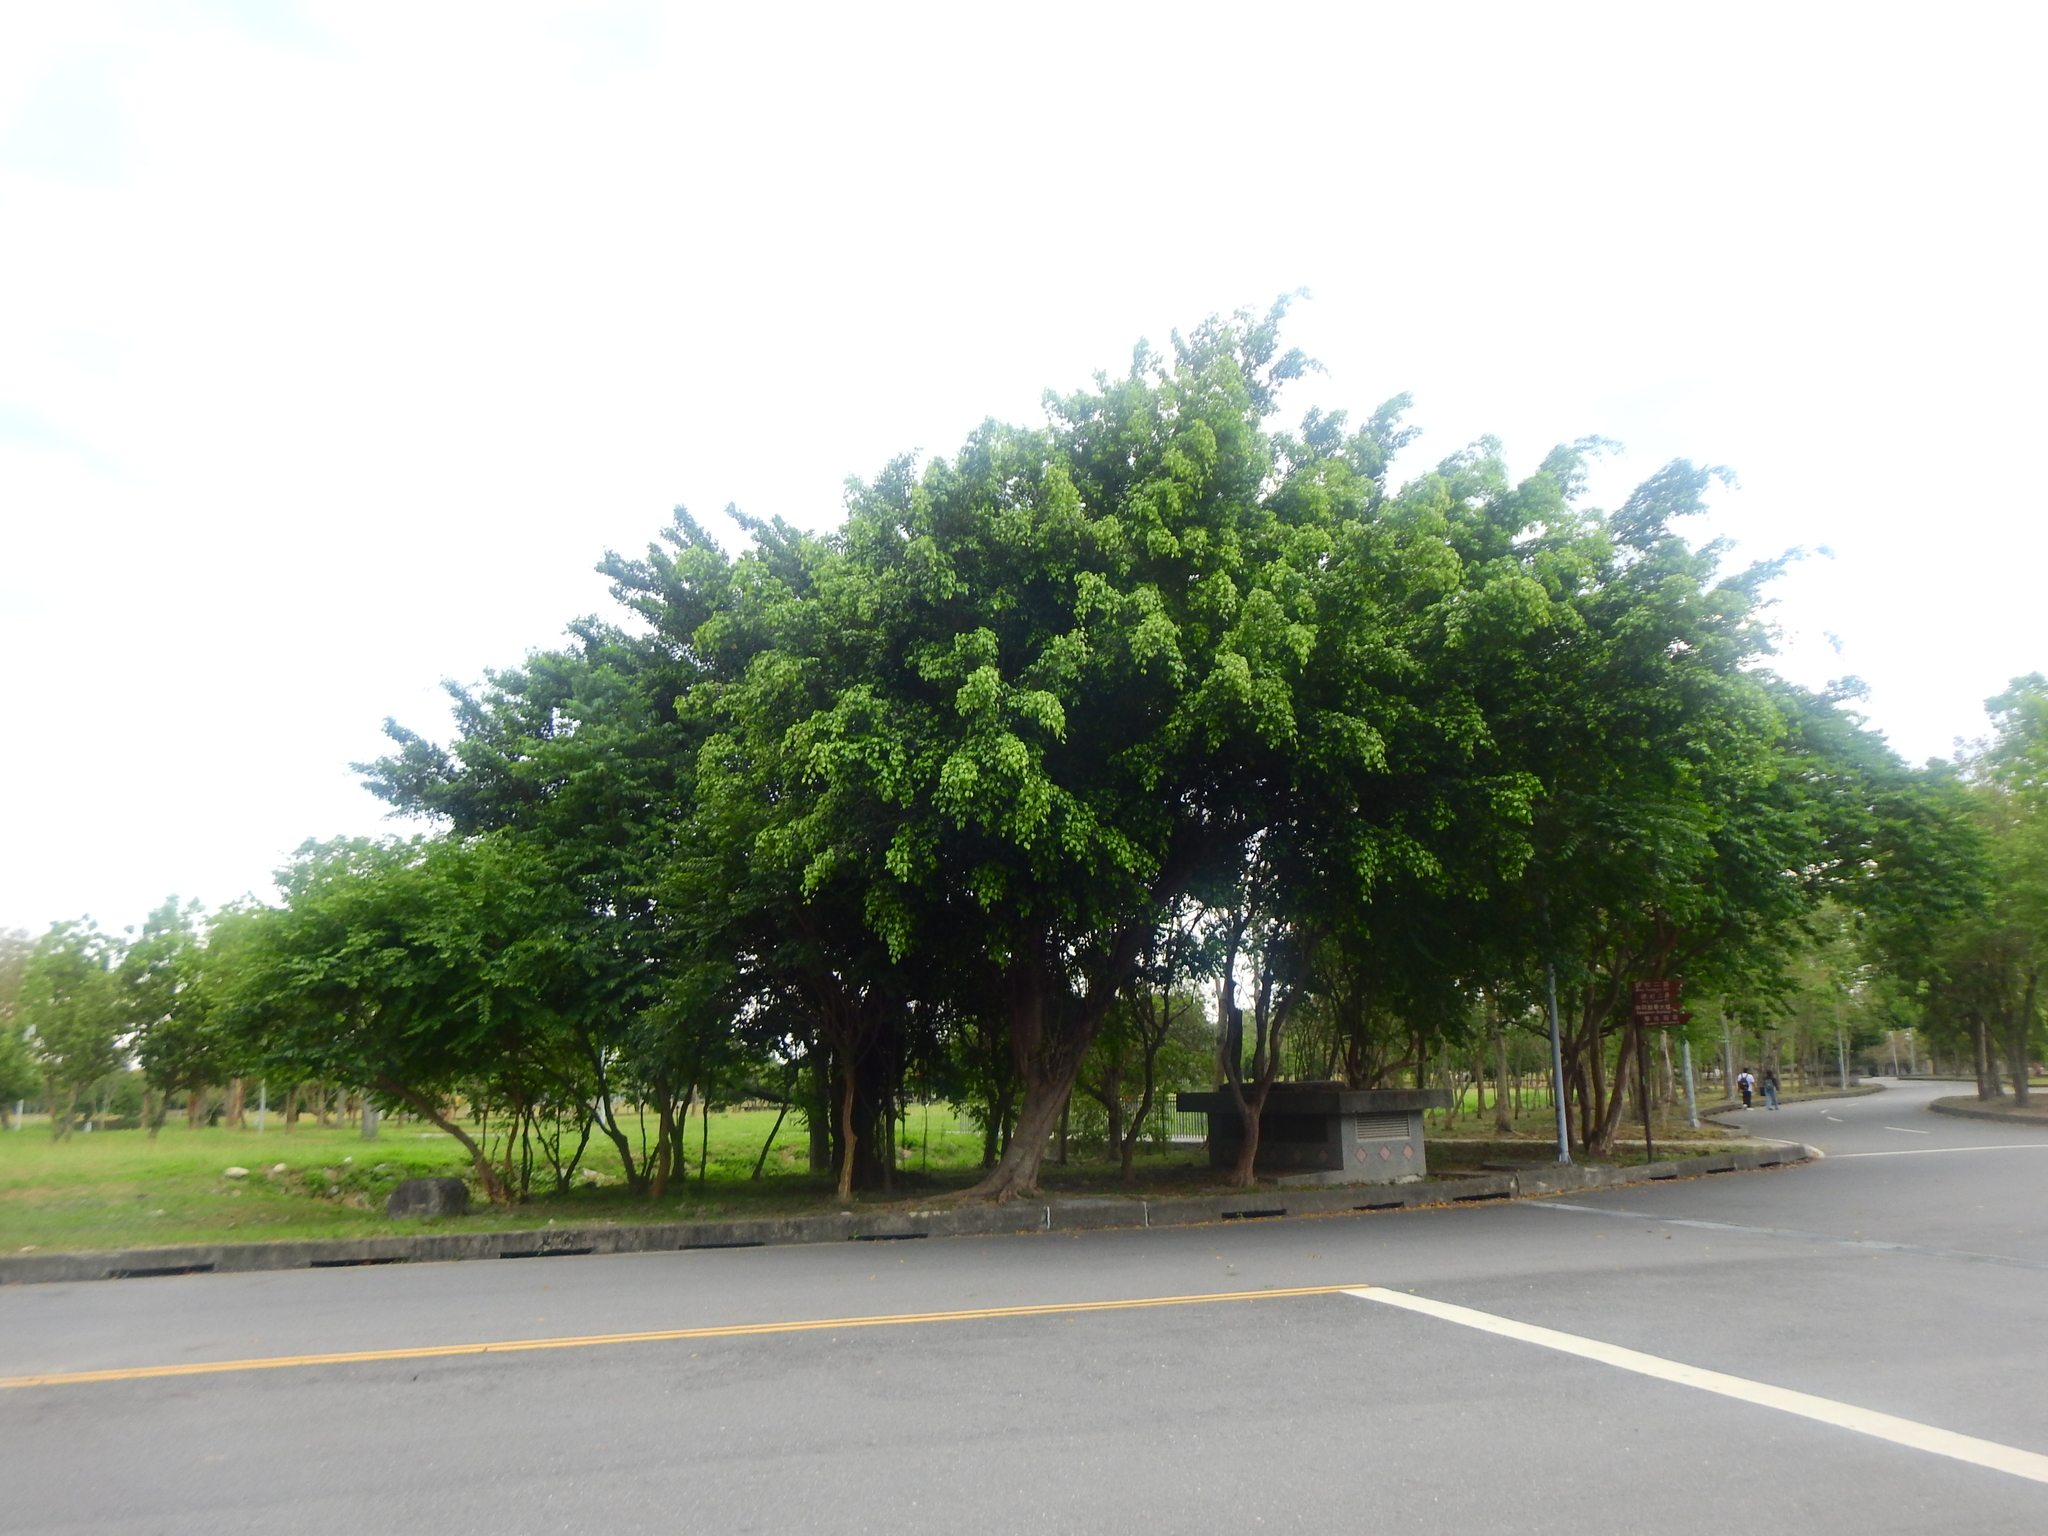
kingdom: Plantae
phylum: Tracheophyta
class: Magnoliopsida
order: Rosales
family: Moraceae
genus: Ficus
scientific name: Ficus benjamina
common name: Weeping fig
